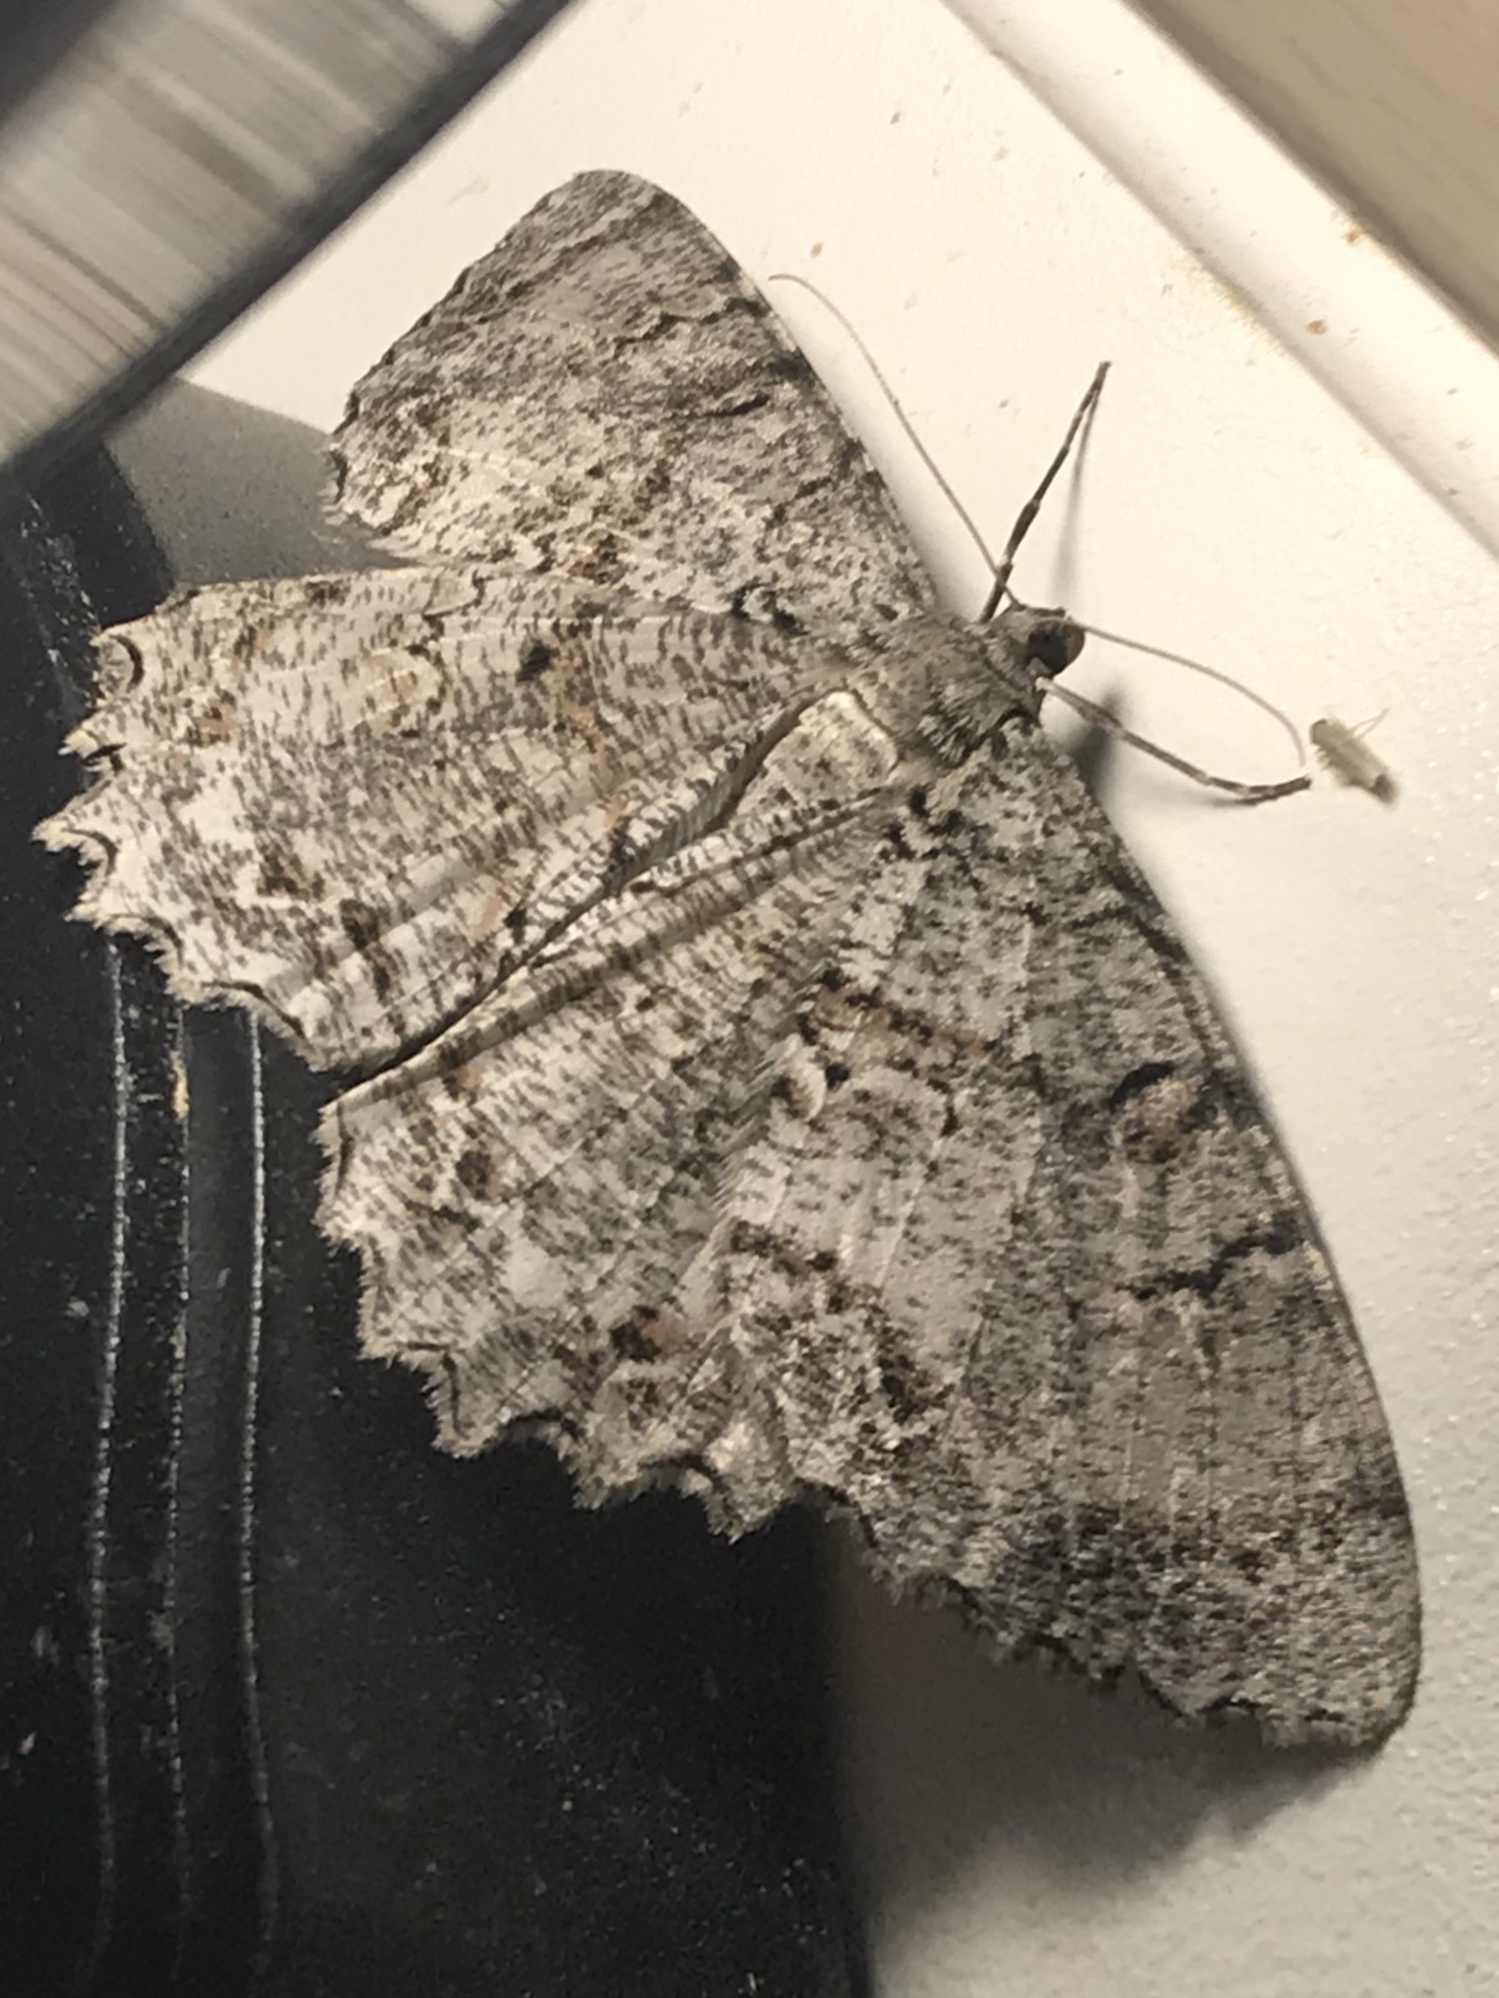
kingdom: Animalia
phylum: Arthropoda
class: Insecta
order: Lepidoptera
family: Geometridae
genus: Epimecis
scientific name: Epimecis hortaria
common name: Tulip-tree beauty
